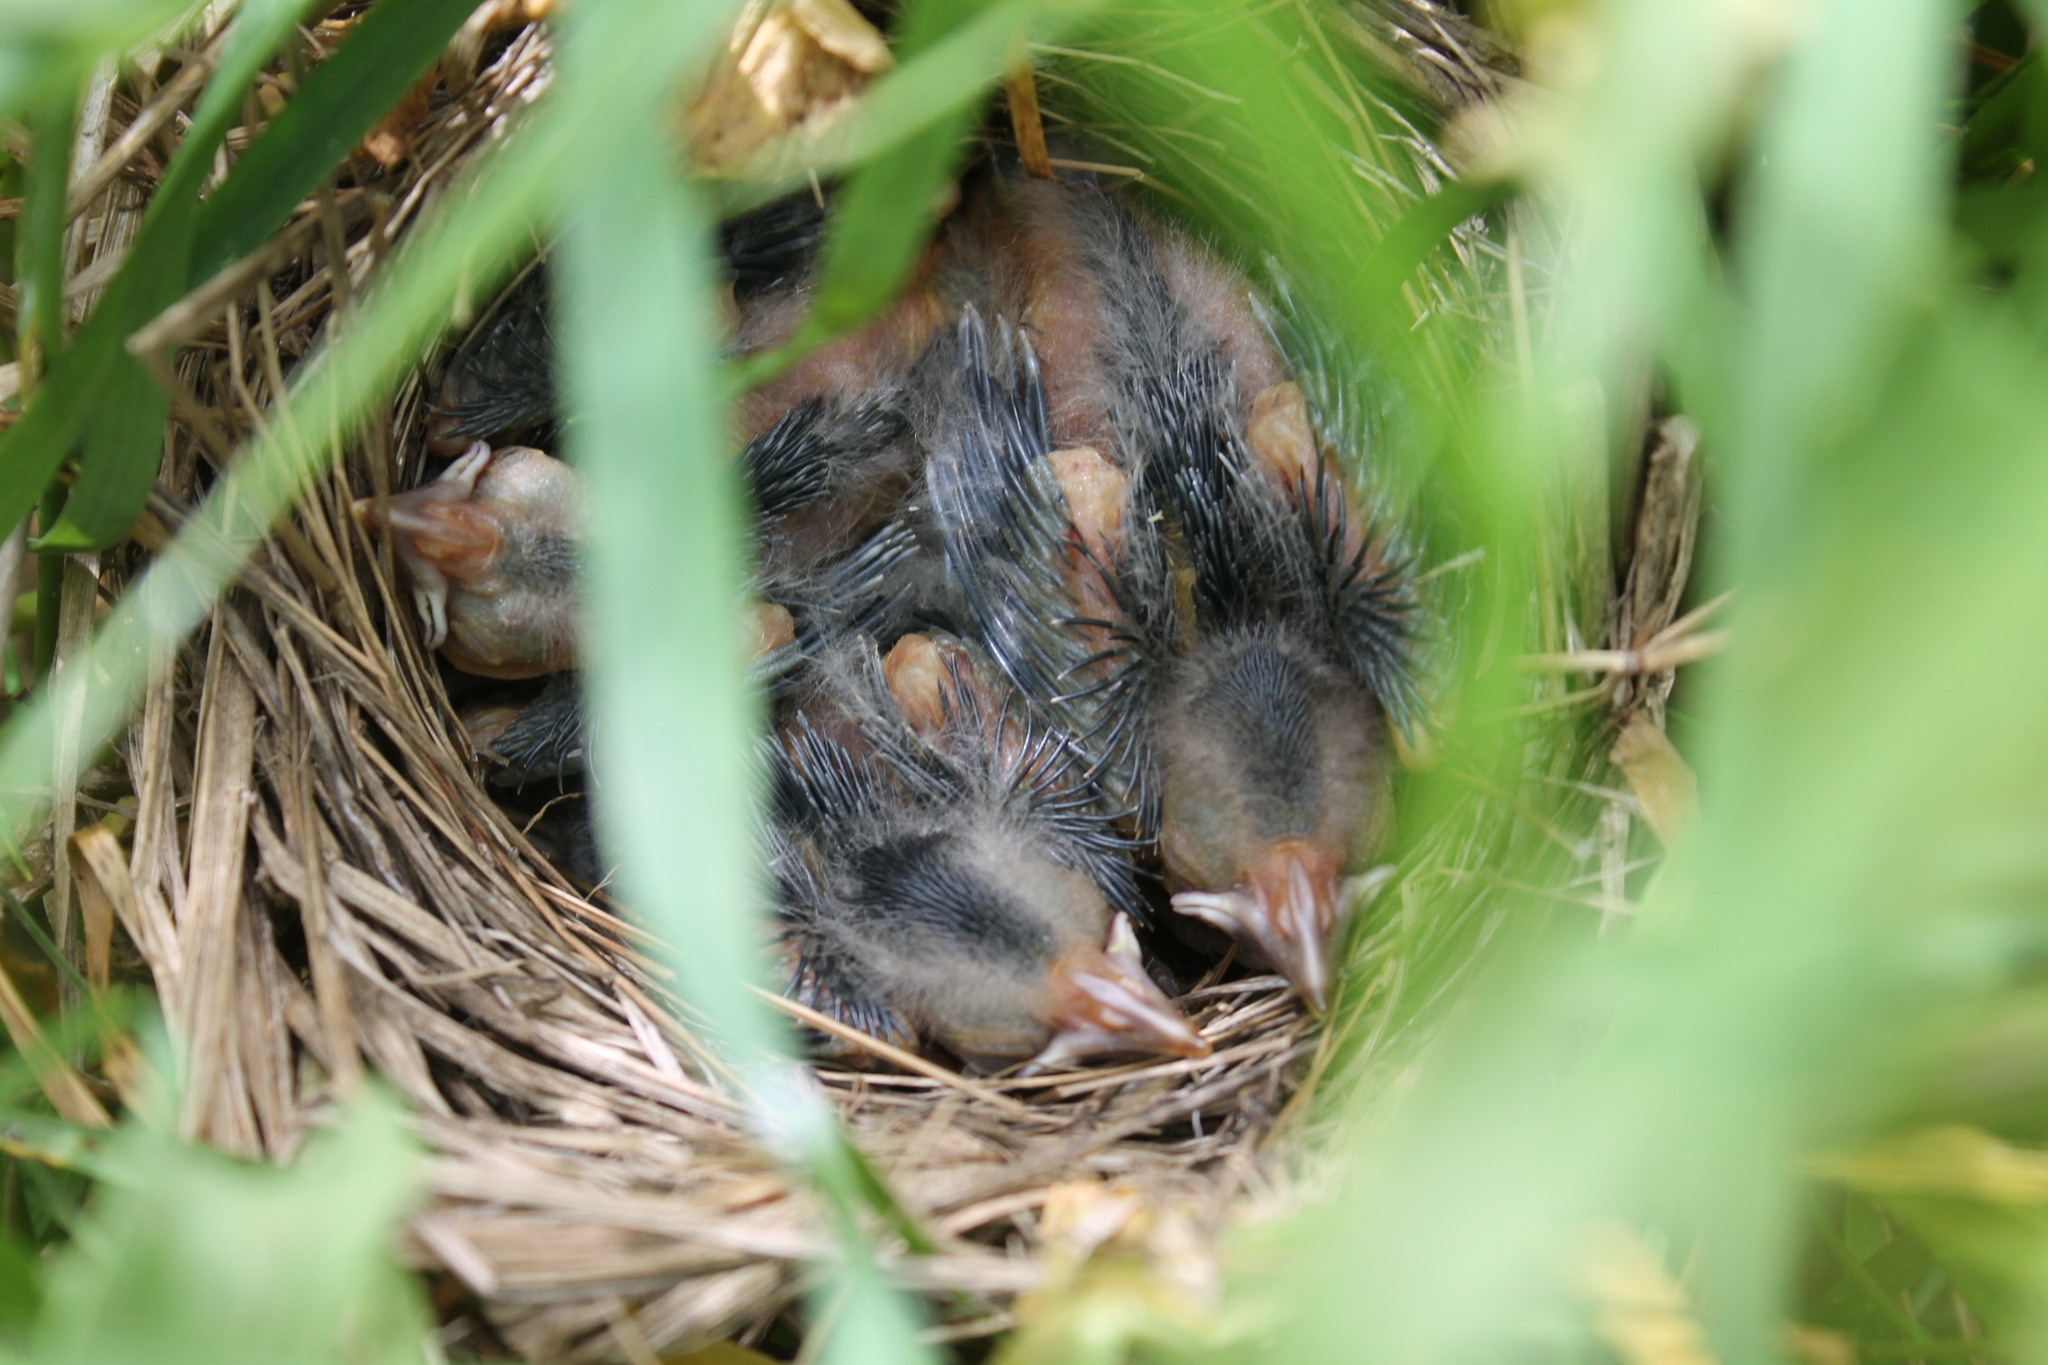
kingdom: Animalia
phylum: Chordata
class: Aves
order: Passeriformes
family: Icteridae
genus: Agelaius
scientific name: Agelaius phoeniceus
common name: Red-winged blackbird
